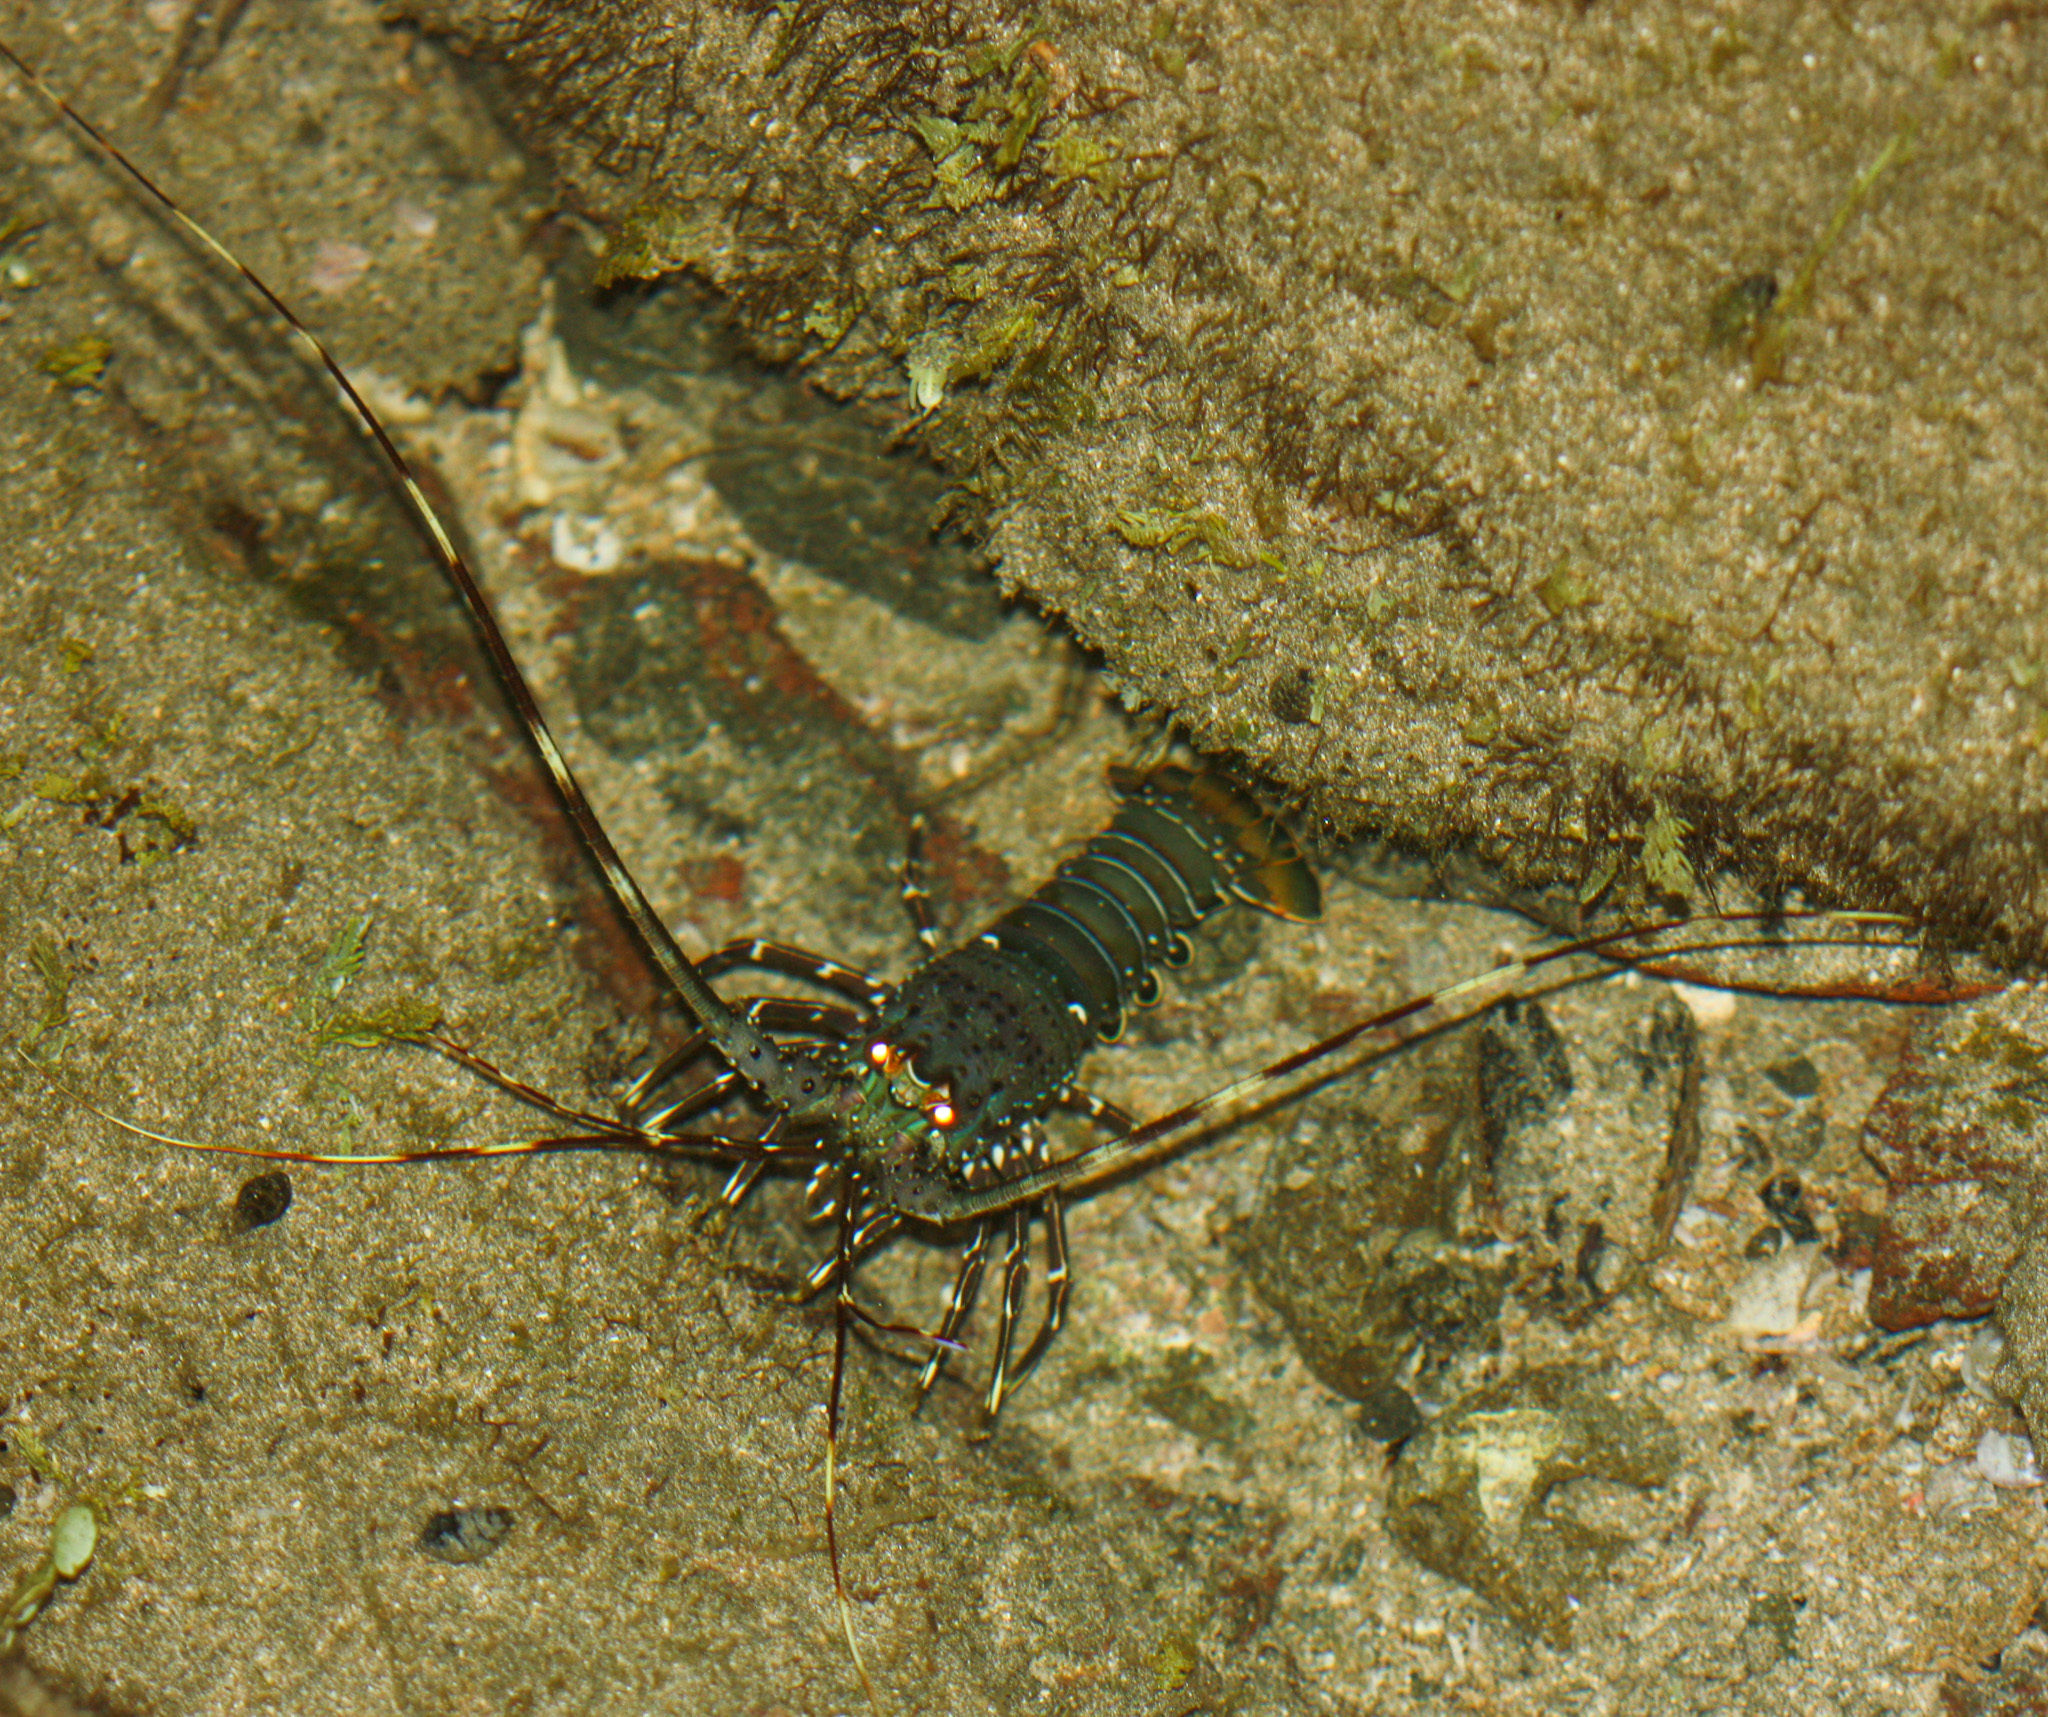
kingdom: Animalia
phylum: Arthropoda
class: Malacostraca
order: Decapoda
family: Palinuridae
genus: Panulirus
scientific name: Panulirus gracilis
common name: Green spiny lobster
